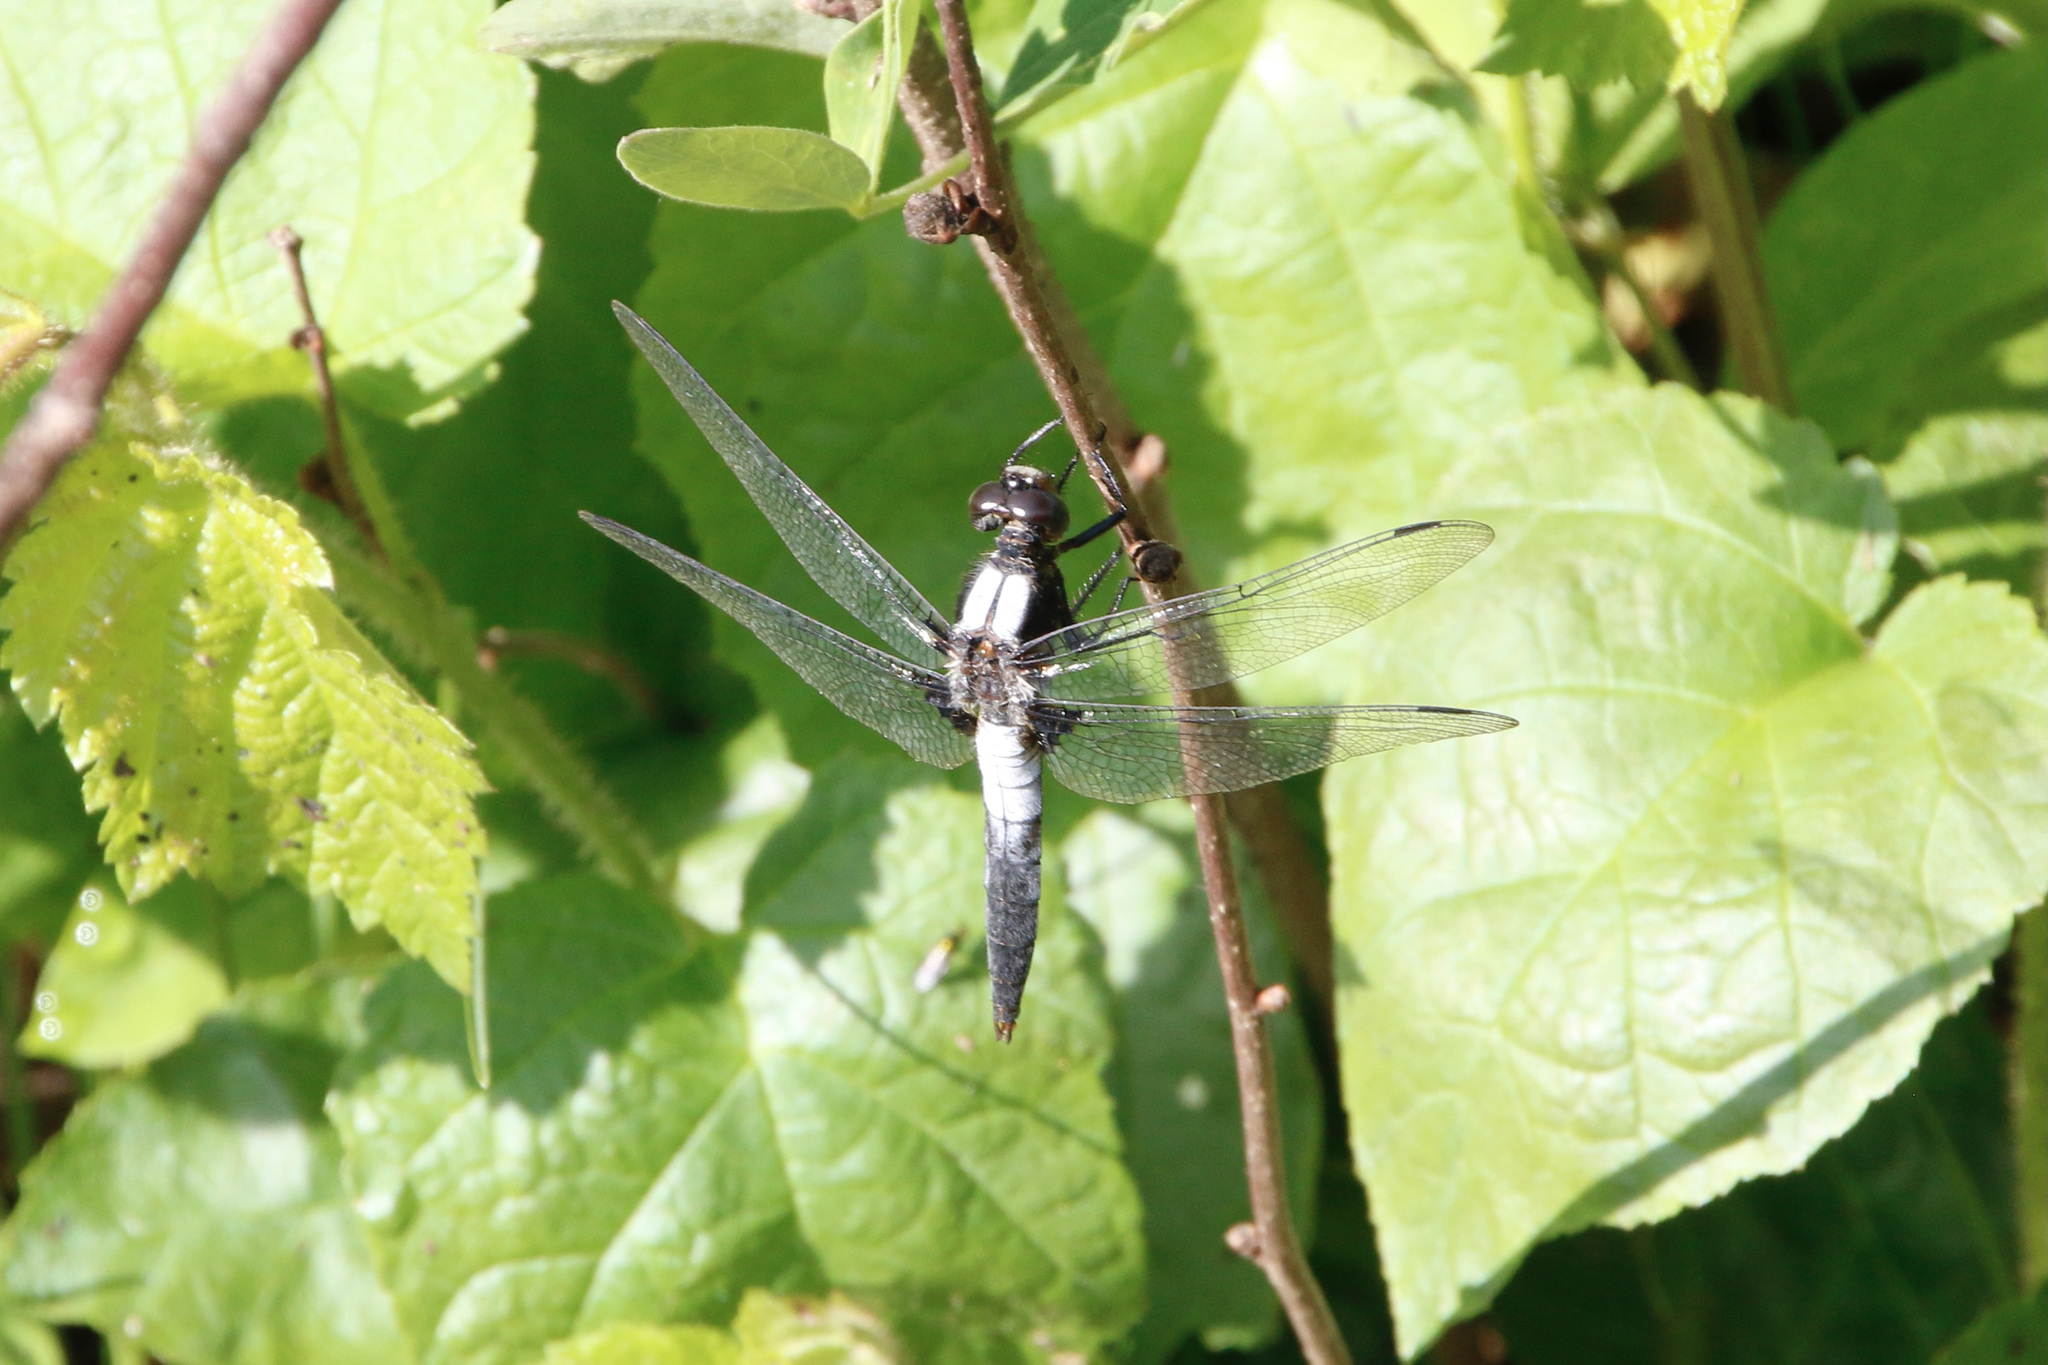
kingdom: Animalia
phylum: Arthropoda
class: Insecta
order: Odonata
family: Libellulidae
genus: Ladona
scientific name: Ladona julia
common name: Chalk-fronted corporal
